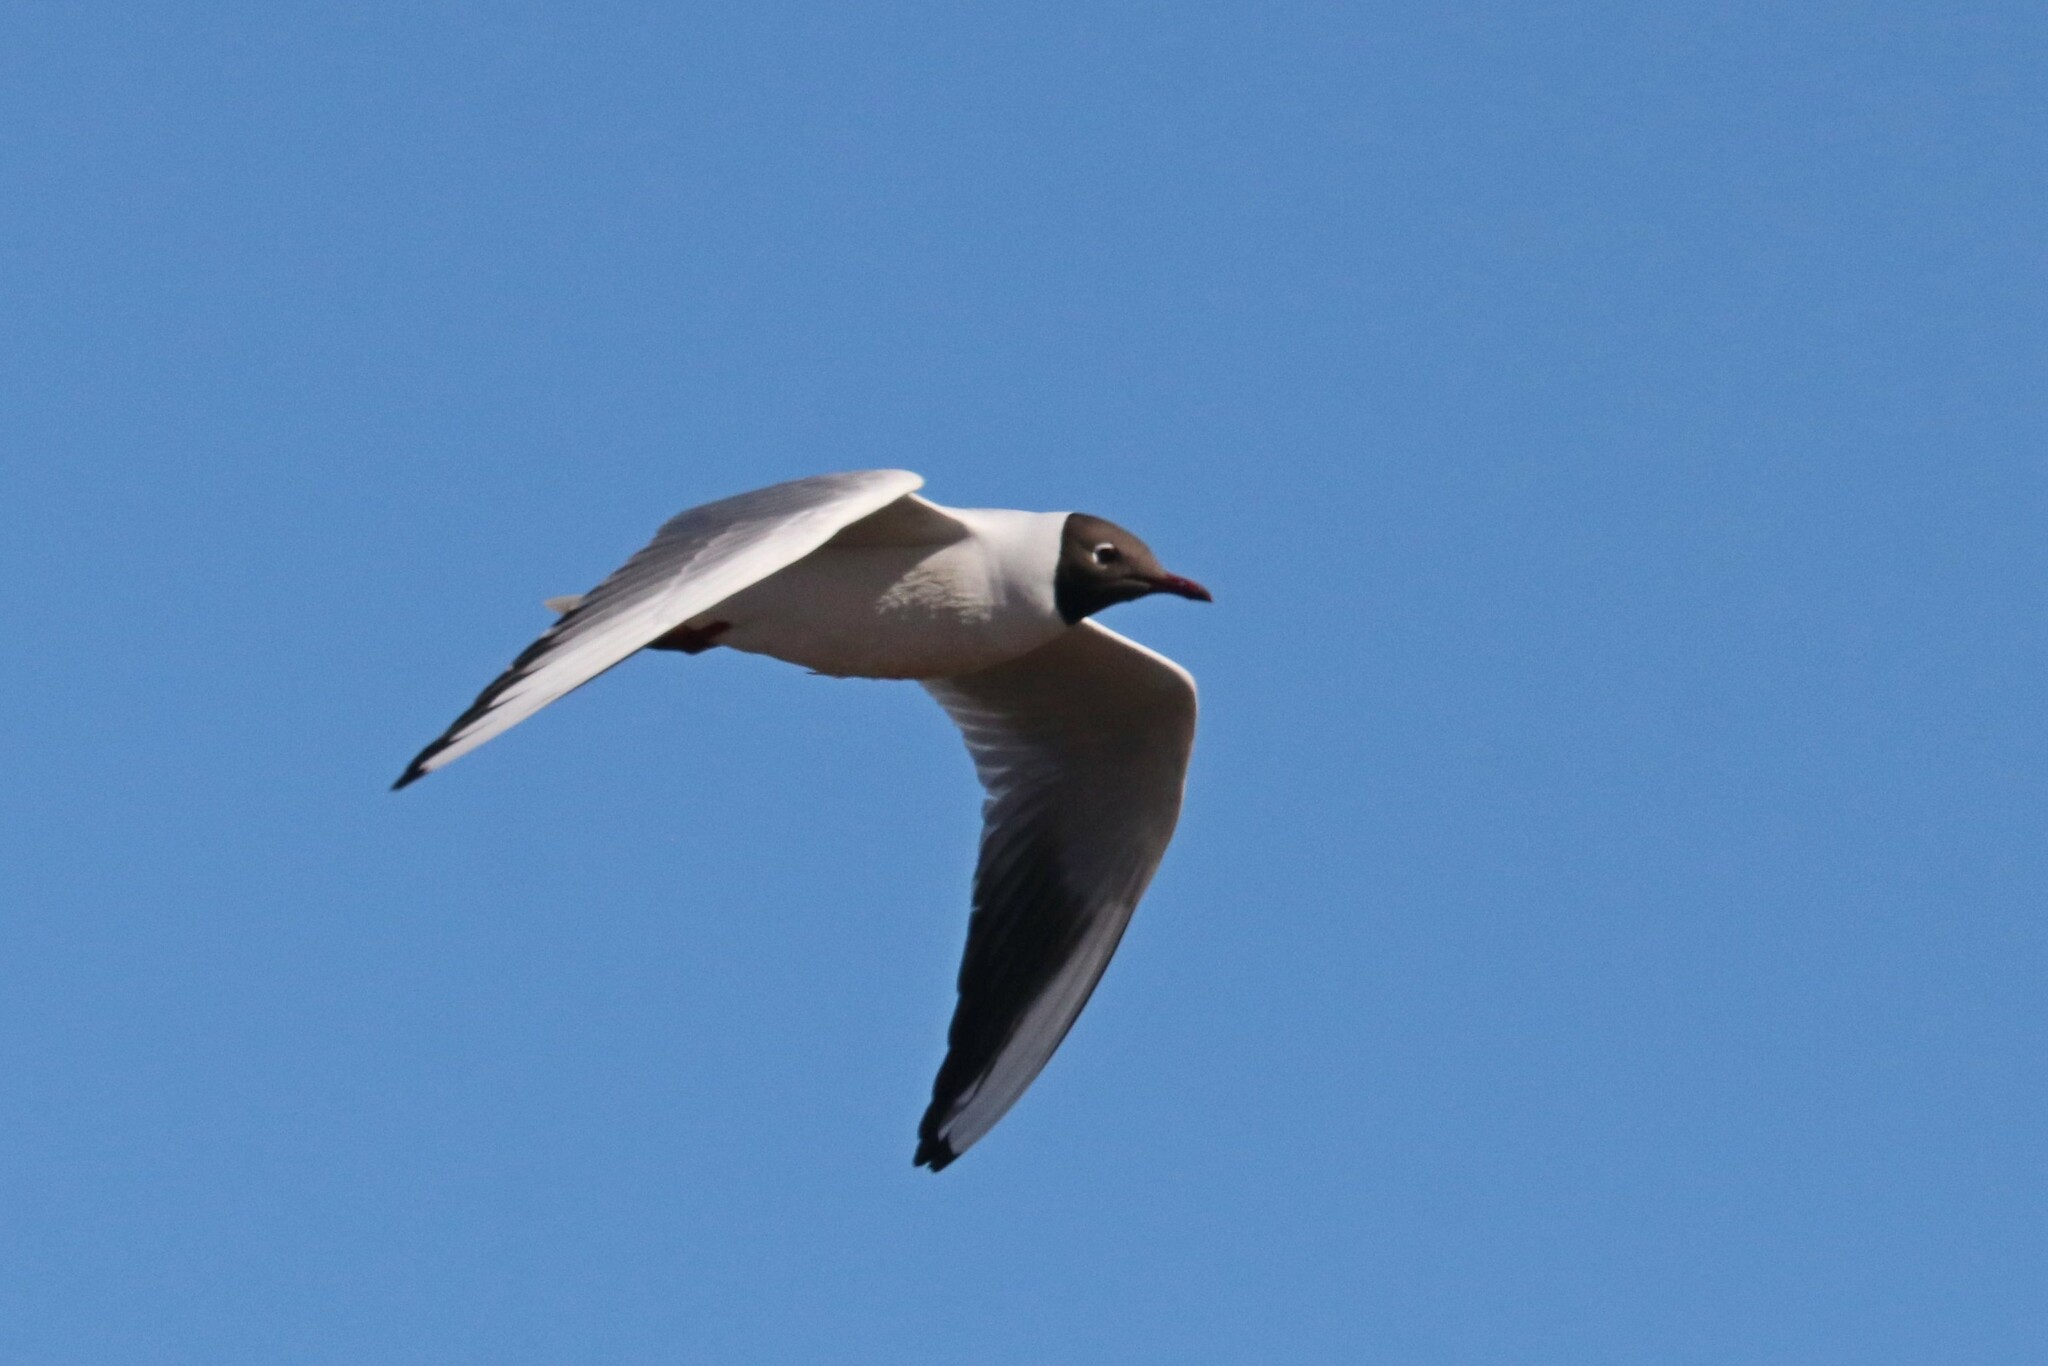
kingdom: Animalia
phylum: Chordata
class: Aves
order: Charadriiformes
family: Laridae
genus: Chroicocephalus
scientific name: Chroicocephalus ridibundus
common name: Black-headed gull
